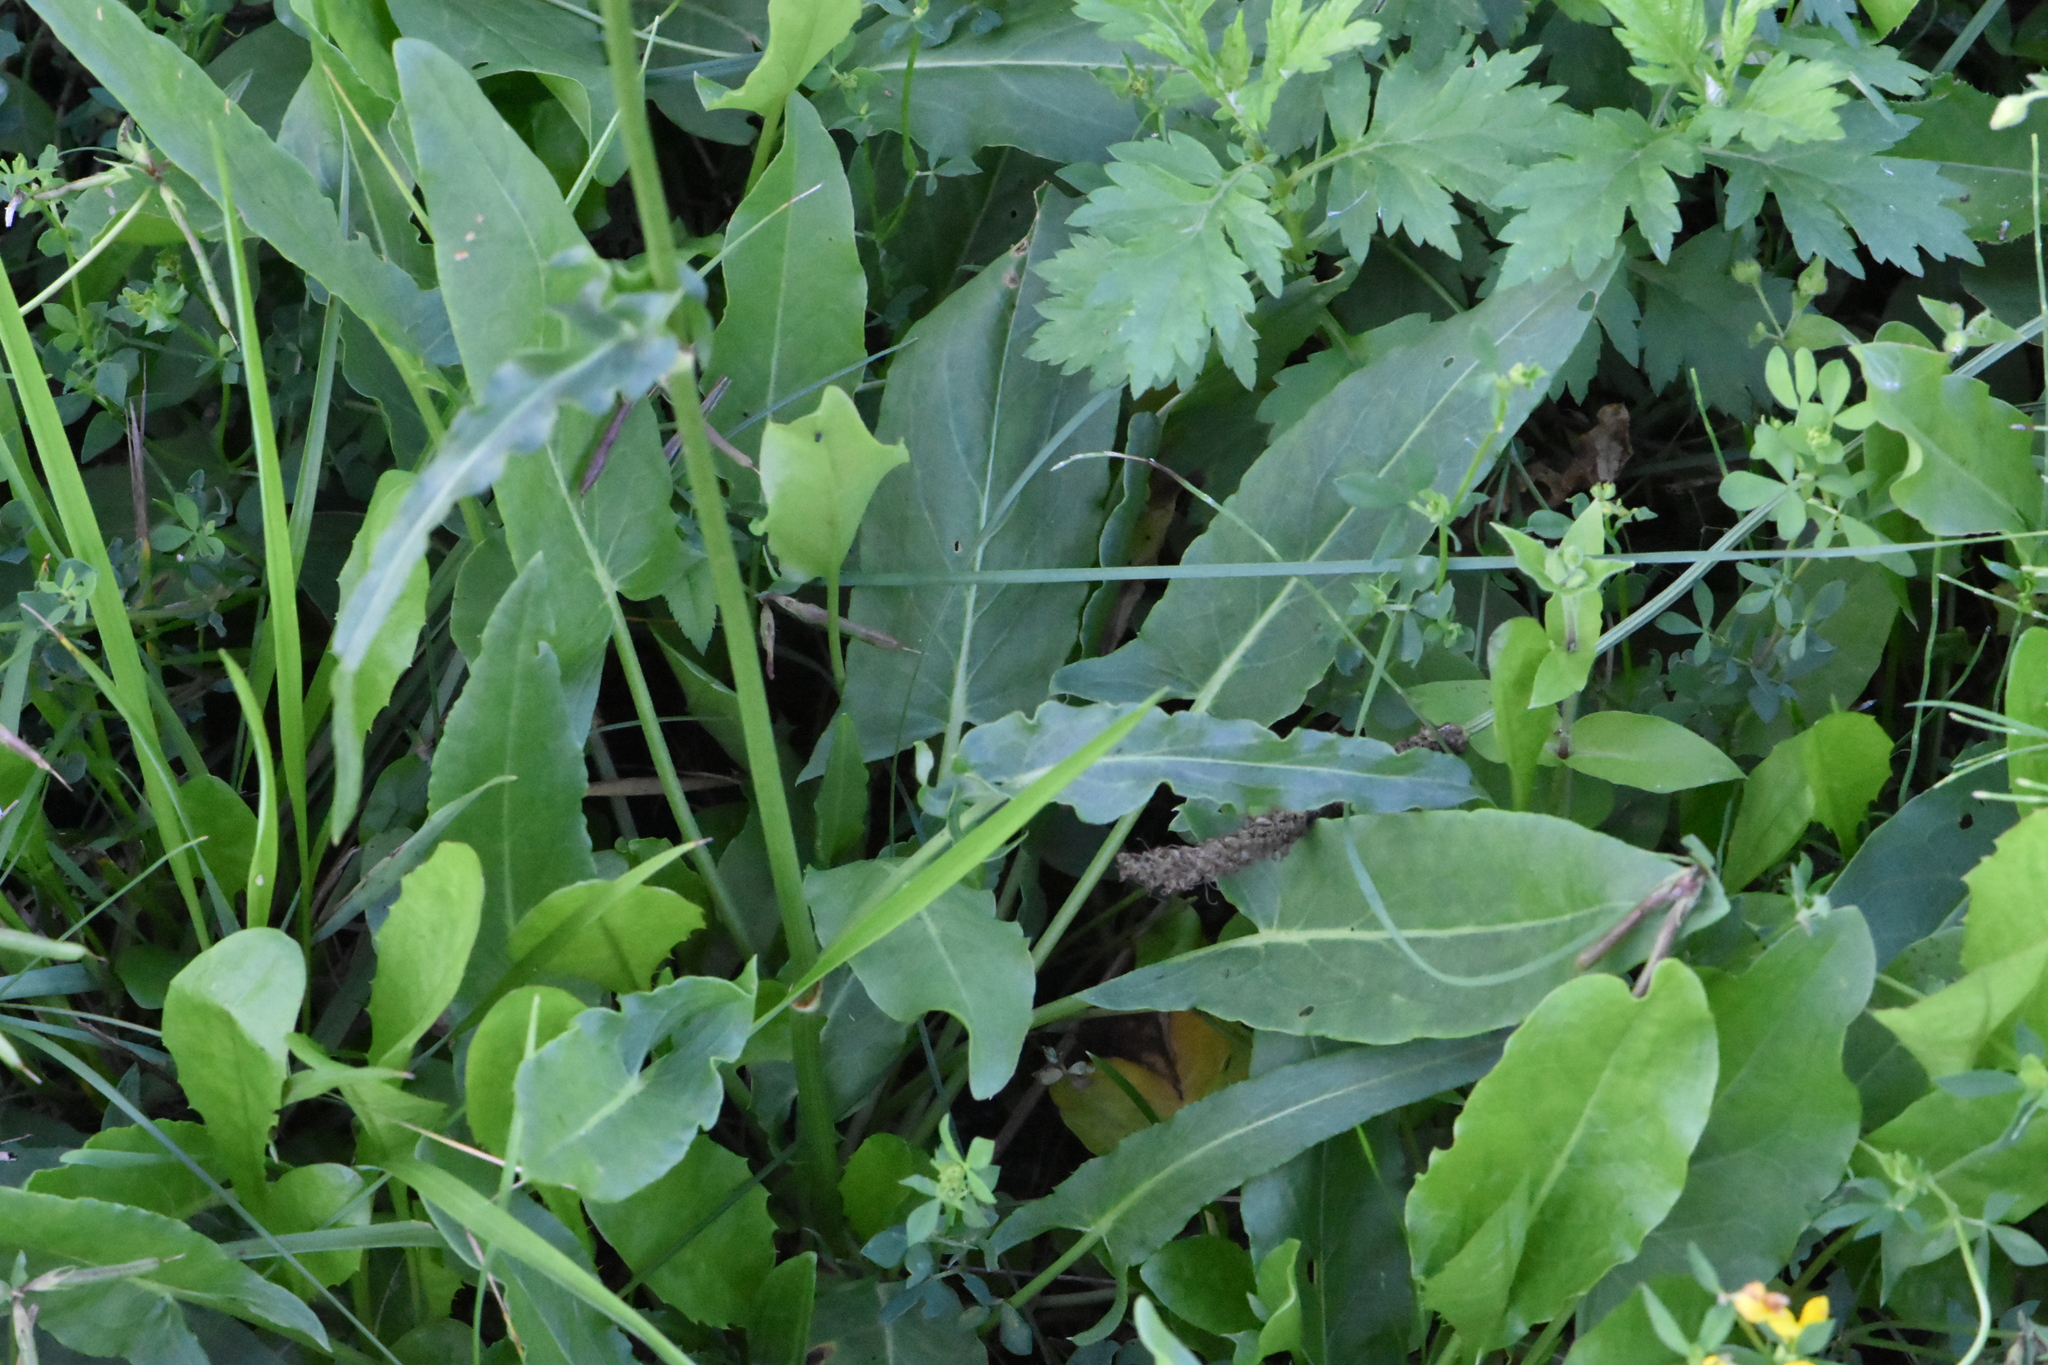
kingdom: Plantae
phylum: Tracheophyta
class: Magnoliopsida
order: Caryophyllales
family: Polygonaceae
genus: Rumex
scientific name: Rumex thyrsiflorus
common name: Garden sorrel
